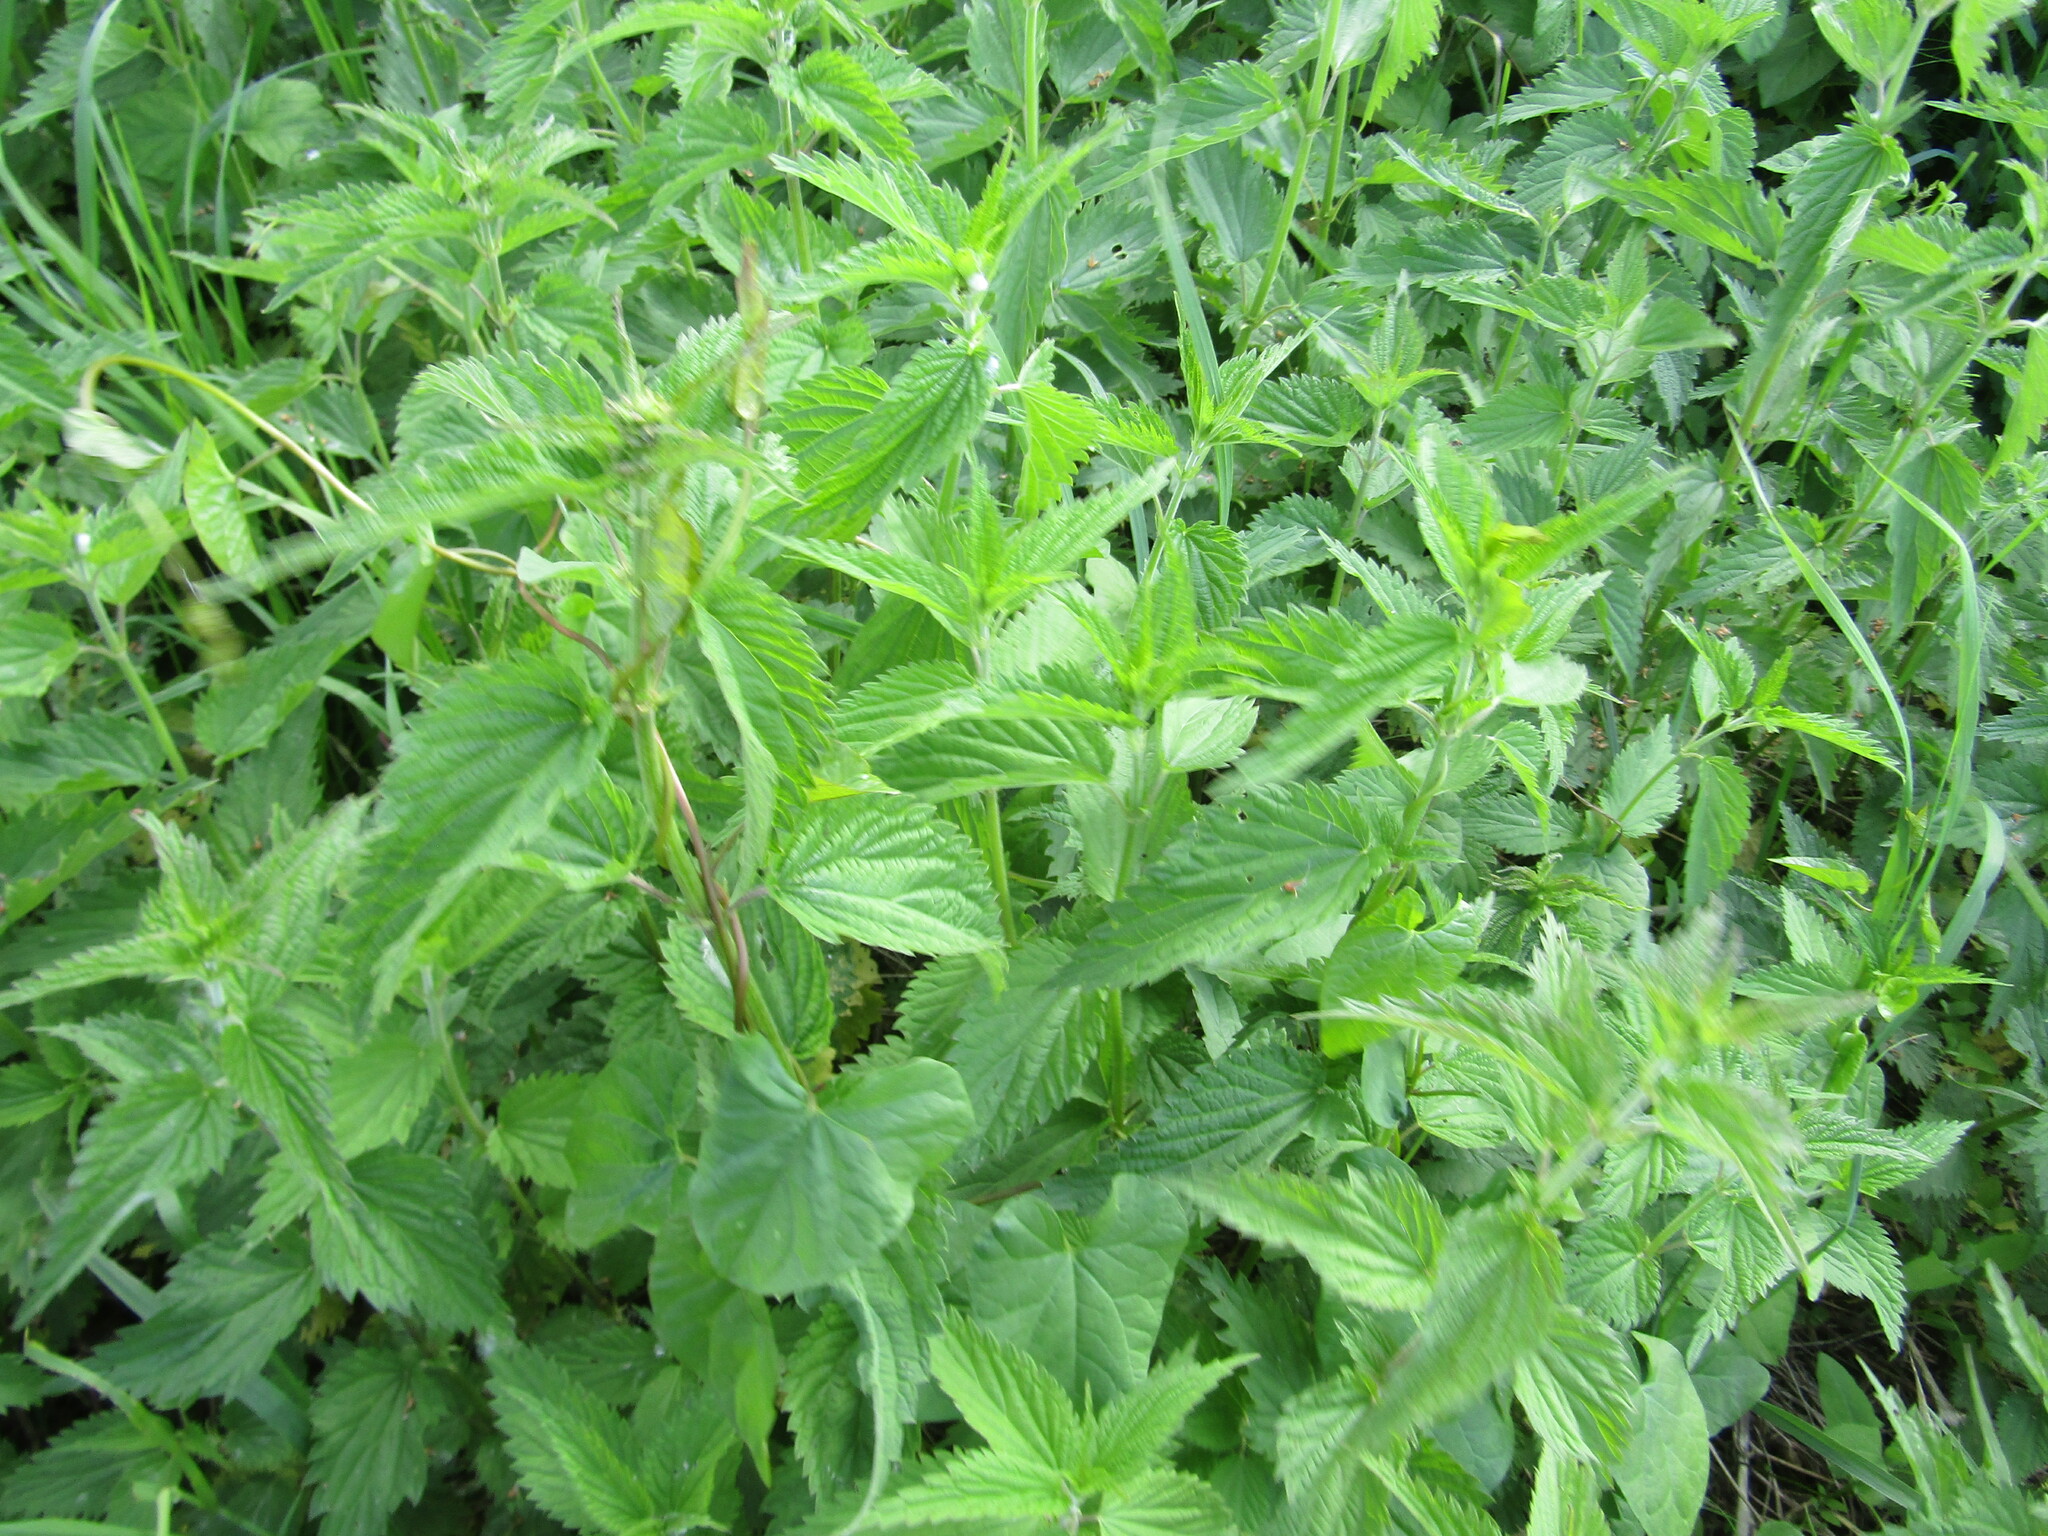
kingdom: Plantae
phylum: Tracheophyta
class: Magnoliopsida
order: Rosales
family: Urticaceae
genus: Urtica
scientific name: Urtica dioica
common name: Common nettle
